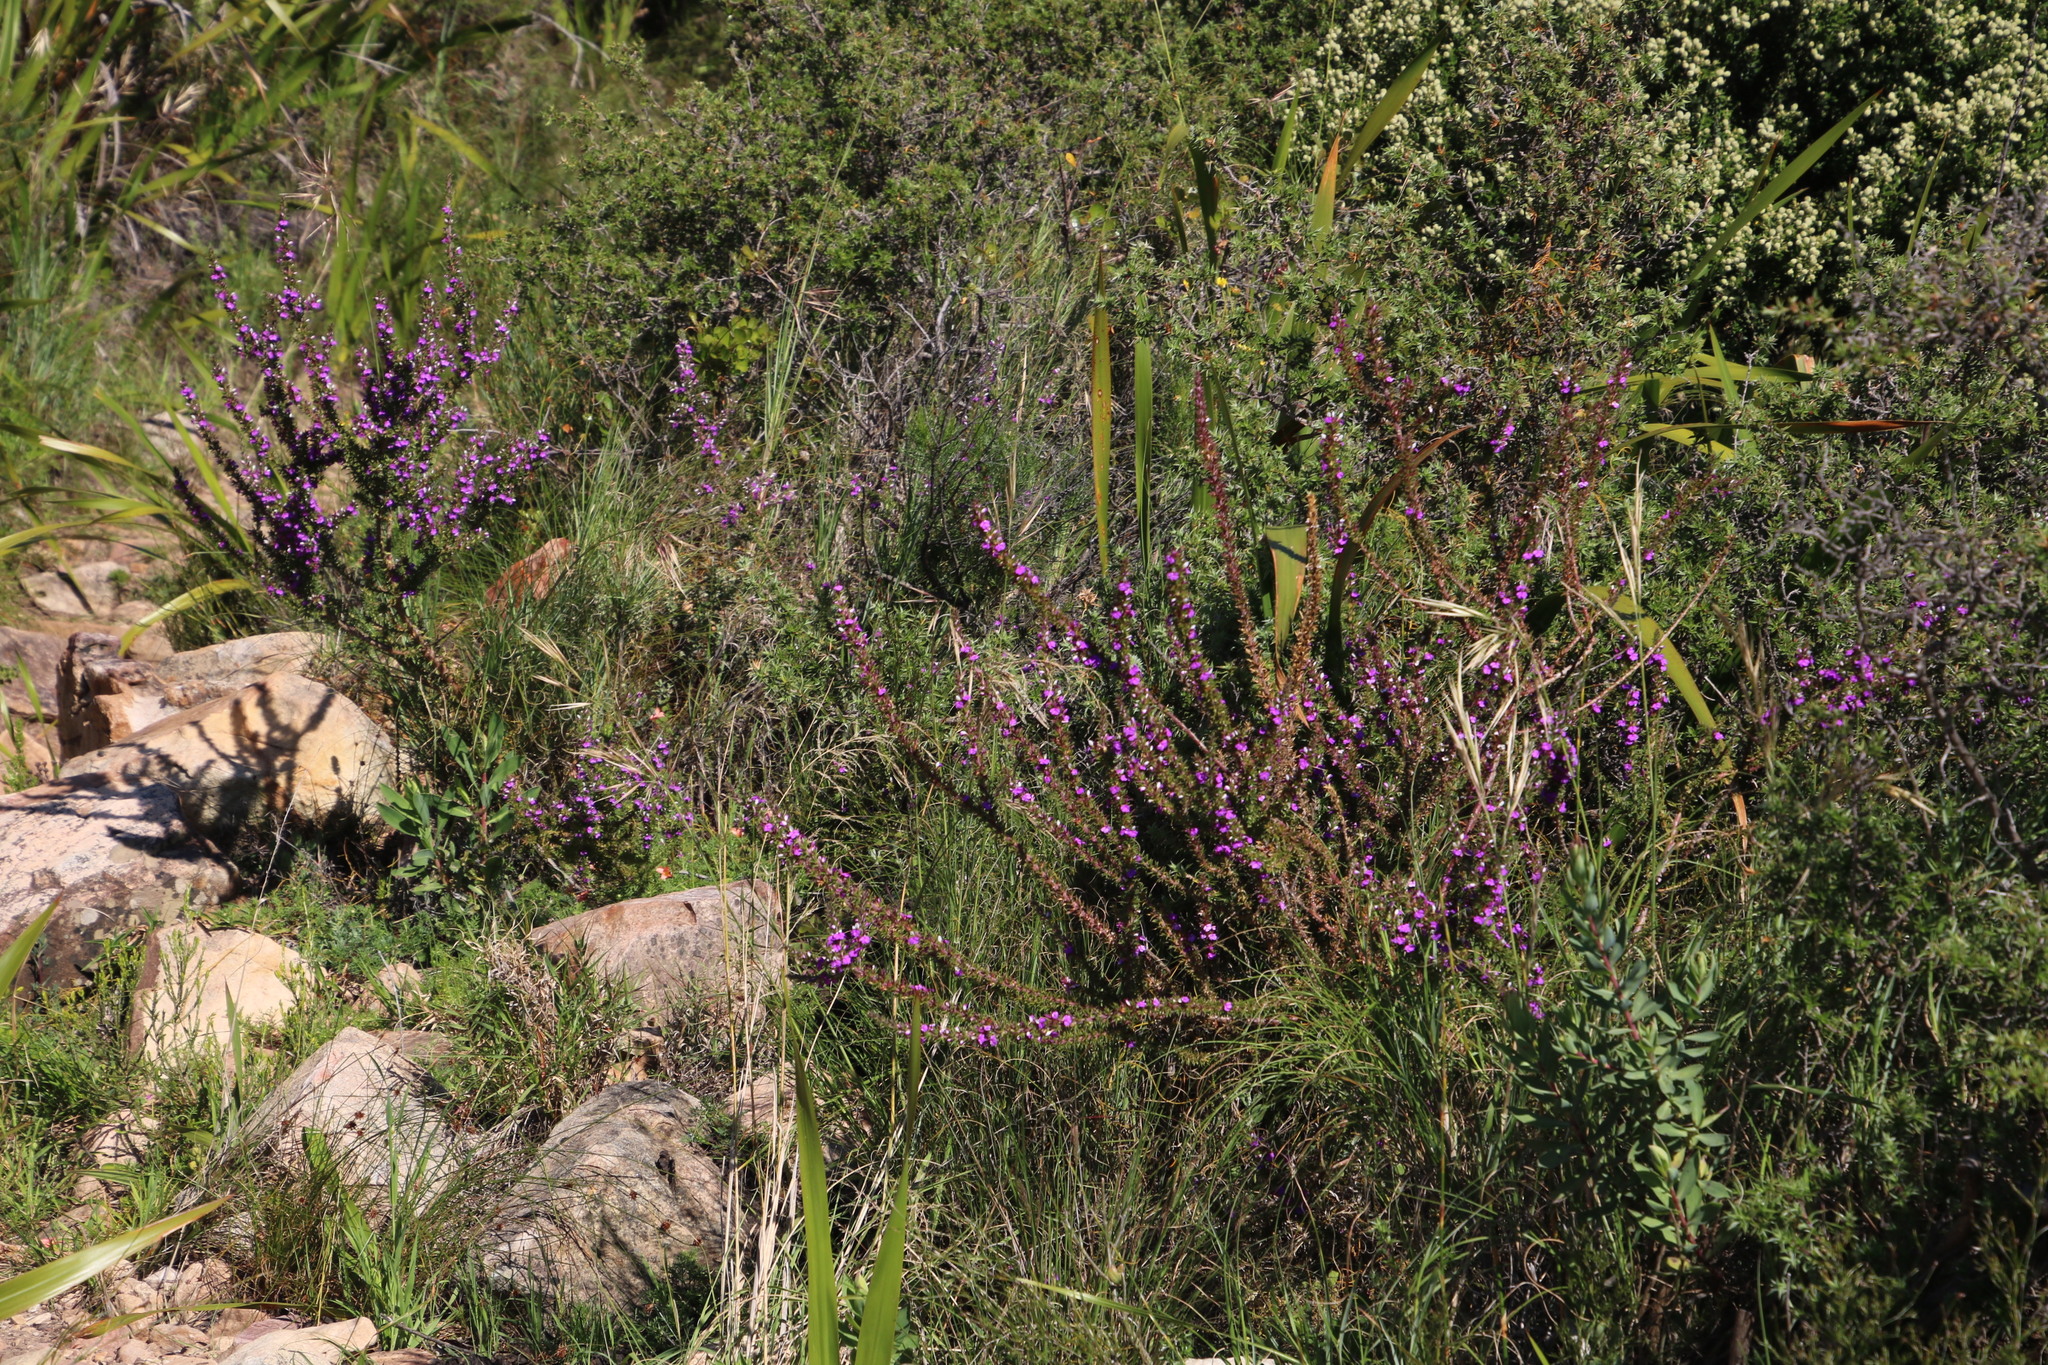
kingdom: Plantae
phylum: Tracheophyta
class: Magnoliopsida
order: Fabales
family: Polygalaceae
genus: Muraltia
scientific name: Muraltia heisteria
